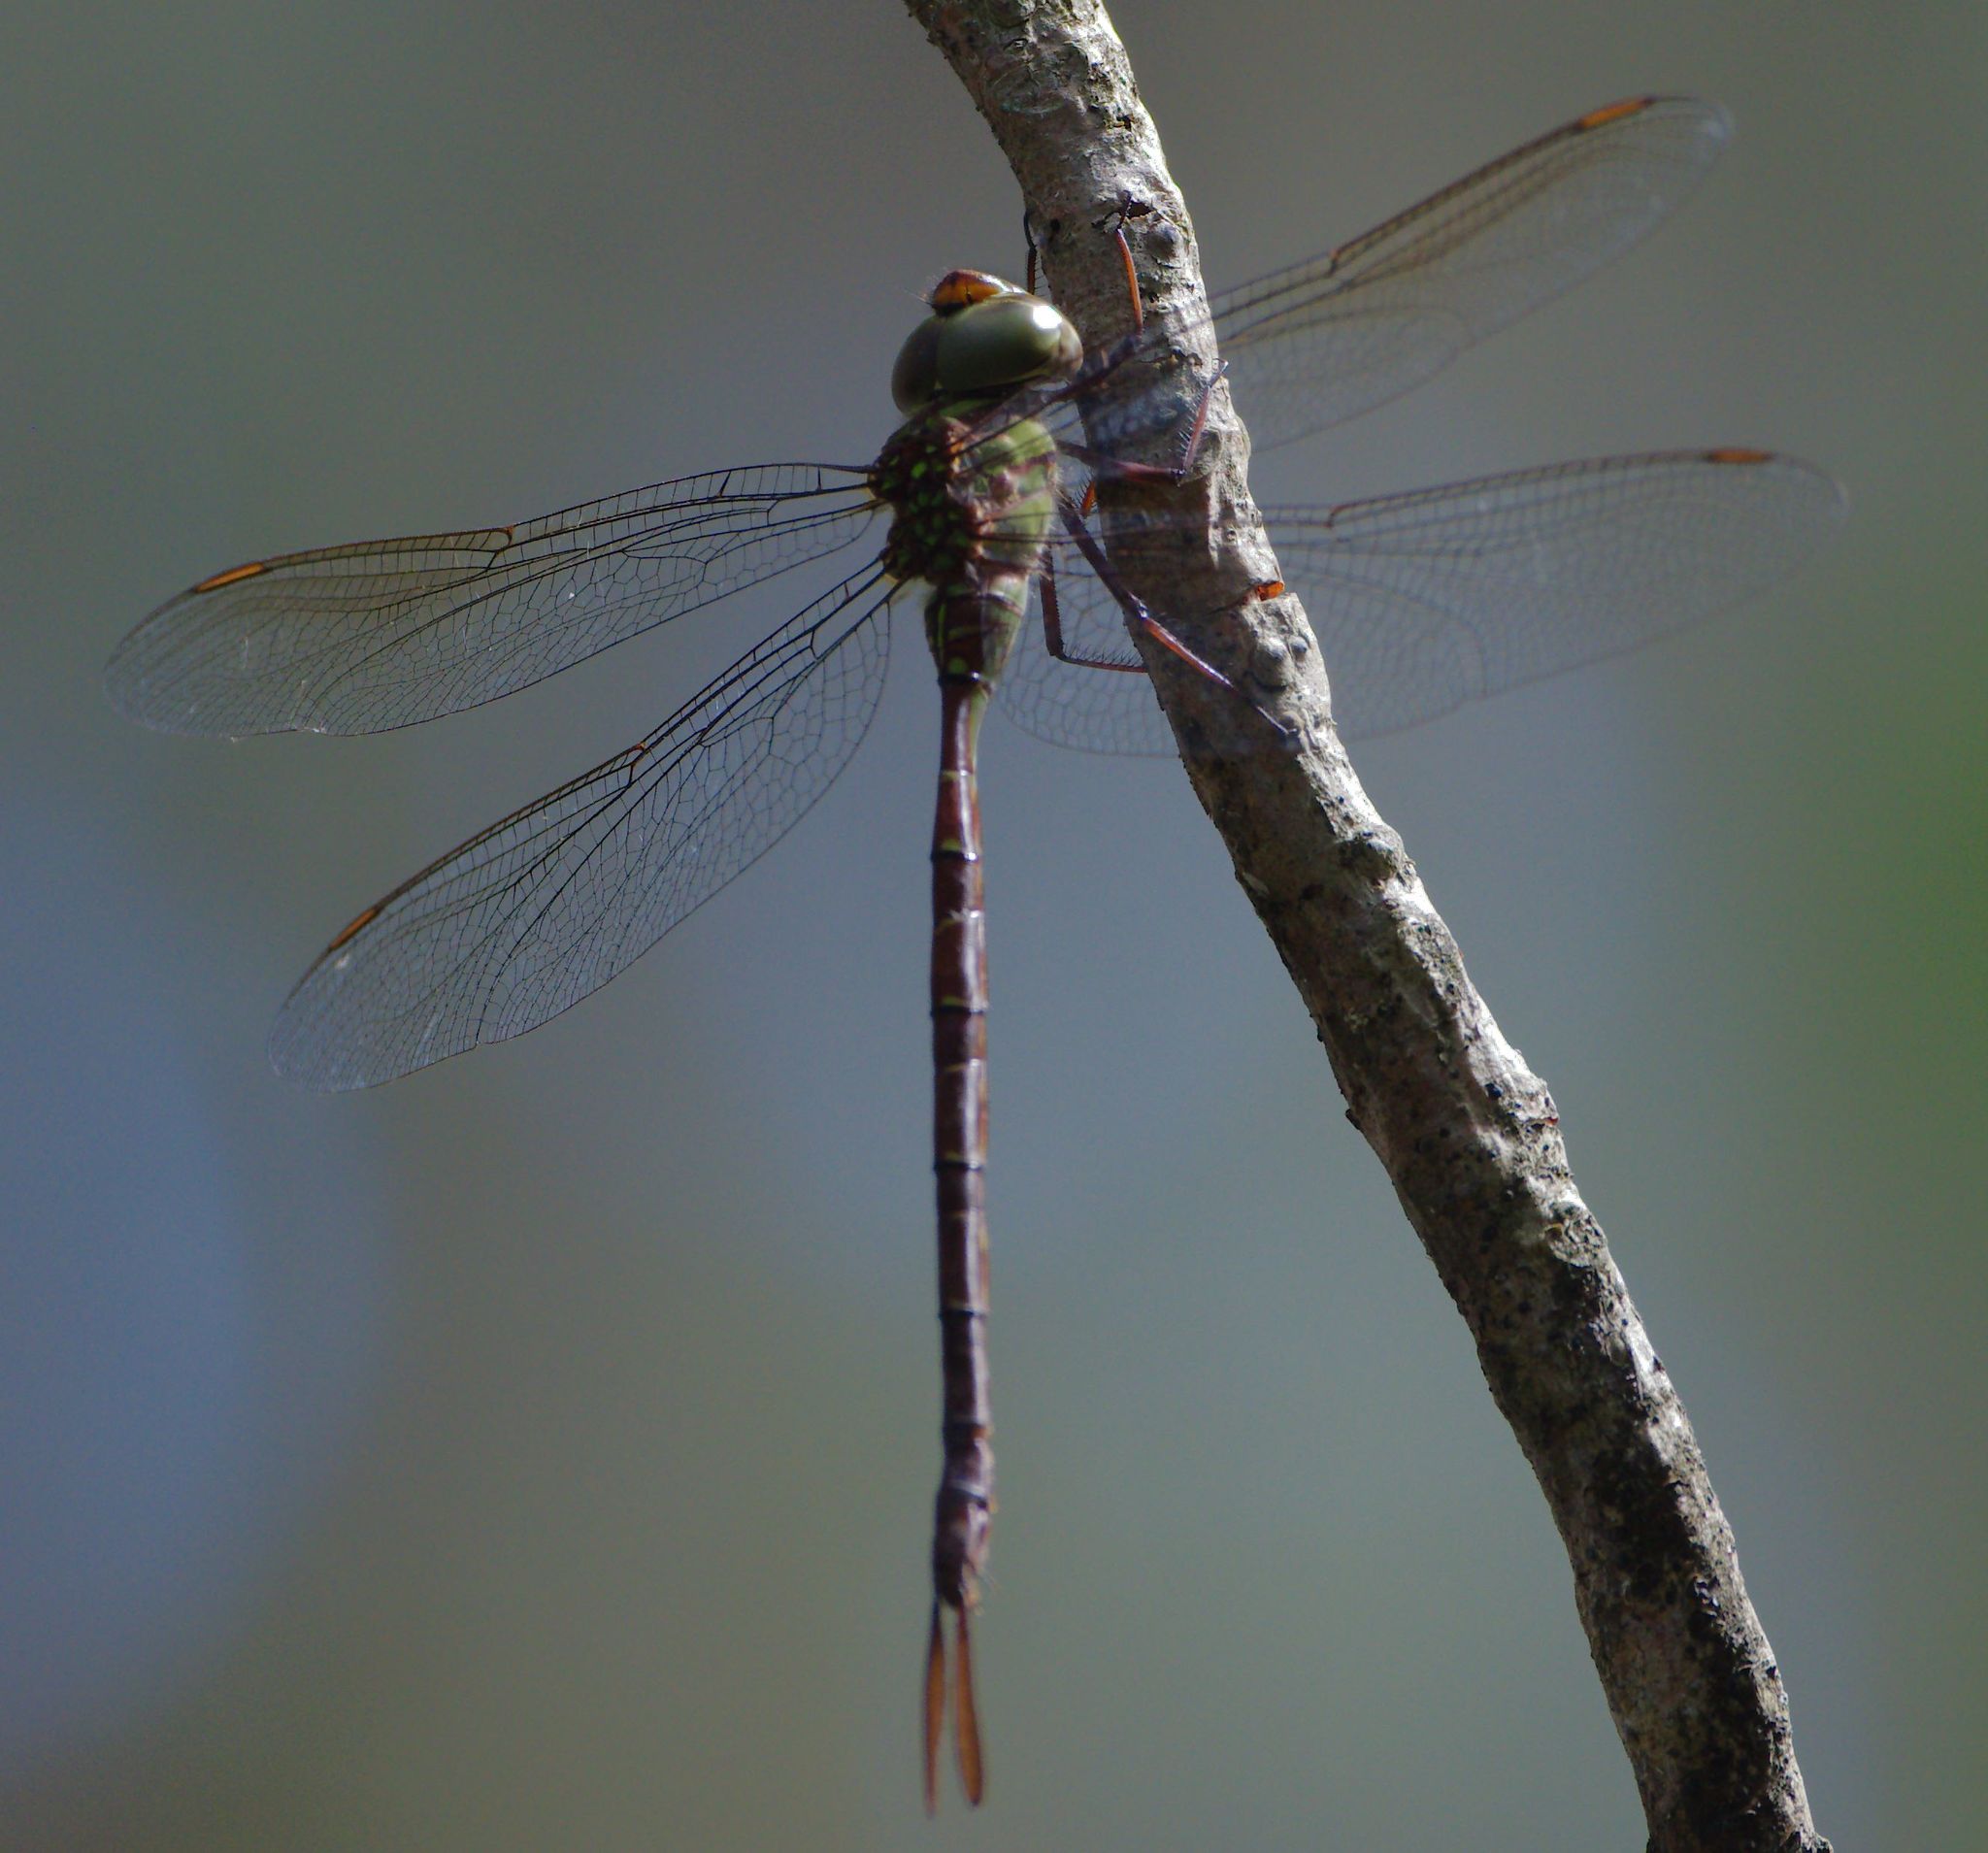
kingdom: Animalia
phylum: Arthropoda
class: Insecta
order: Odonata
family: Aeshnidae
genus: Triacanthagyna
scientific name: Triacanthagyna trifida
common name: Phantom darner
